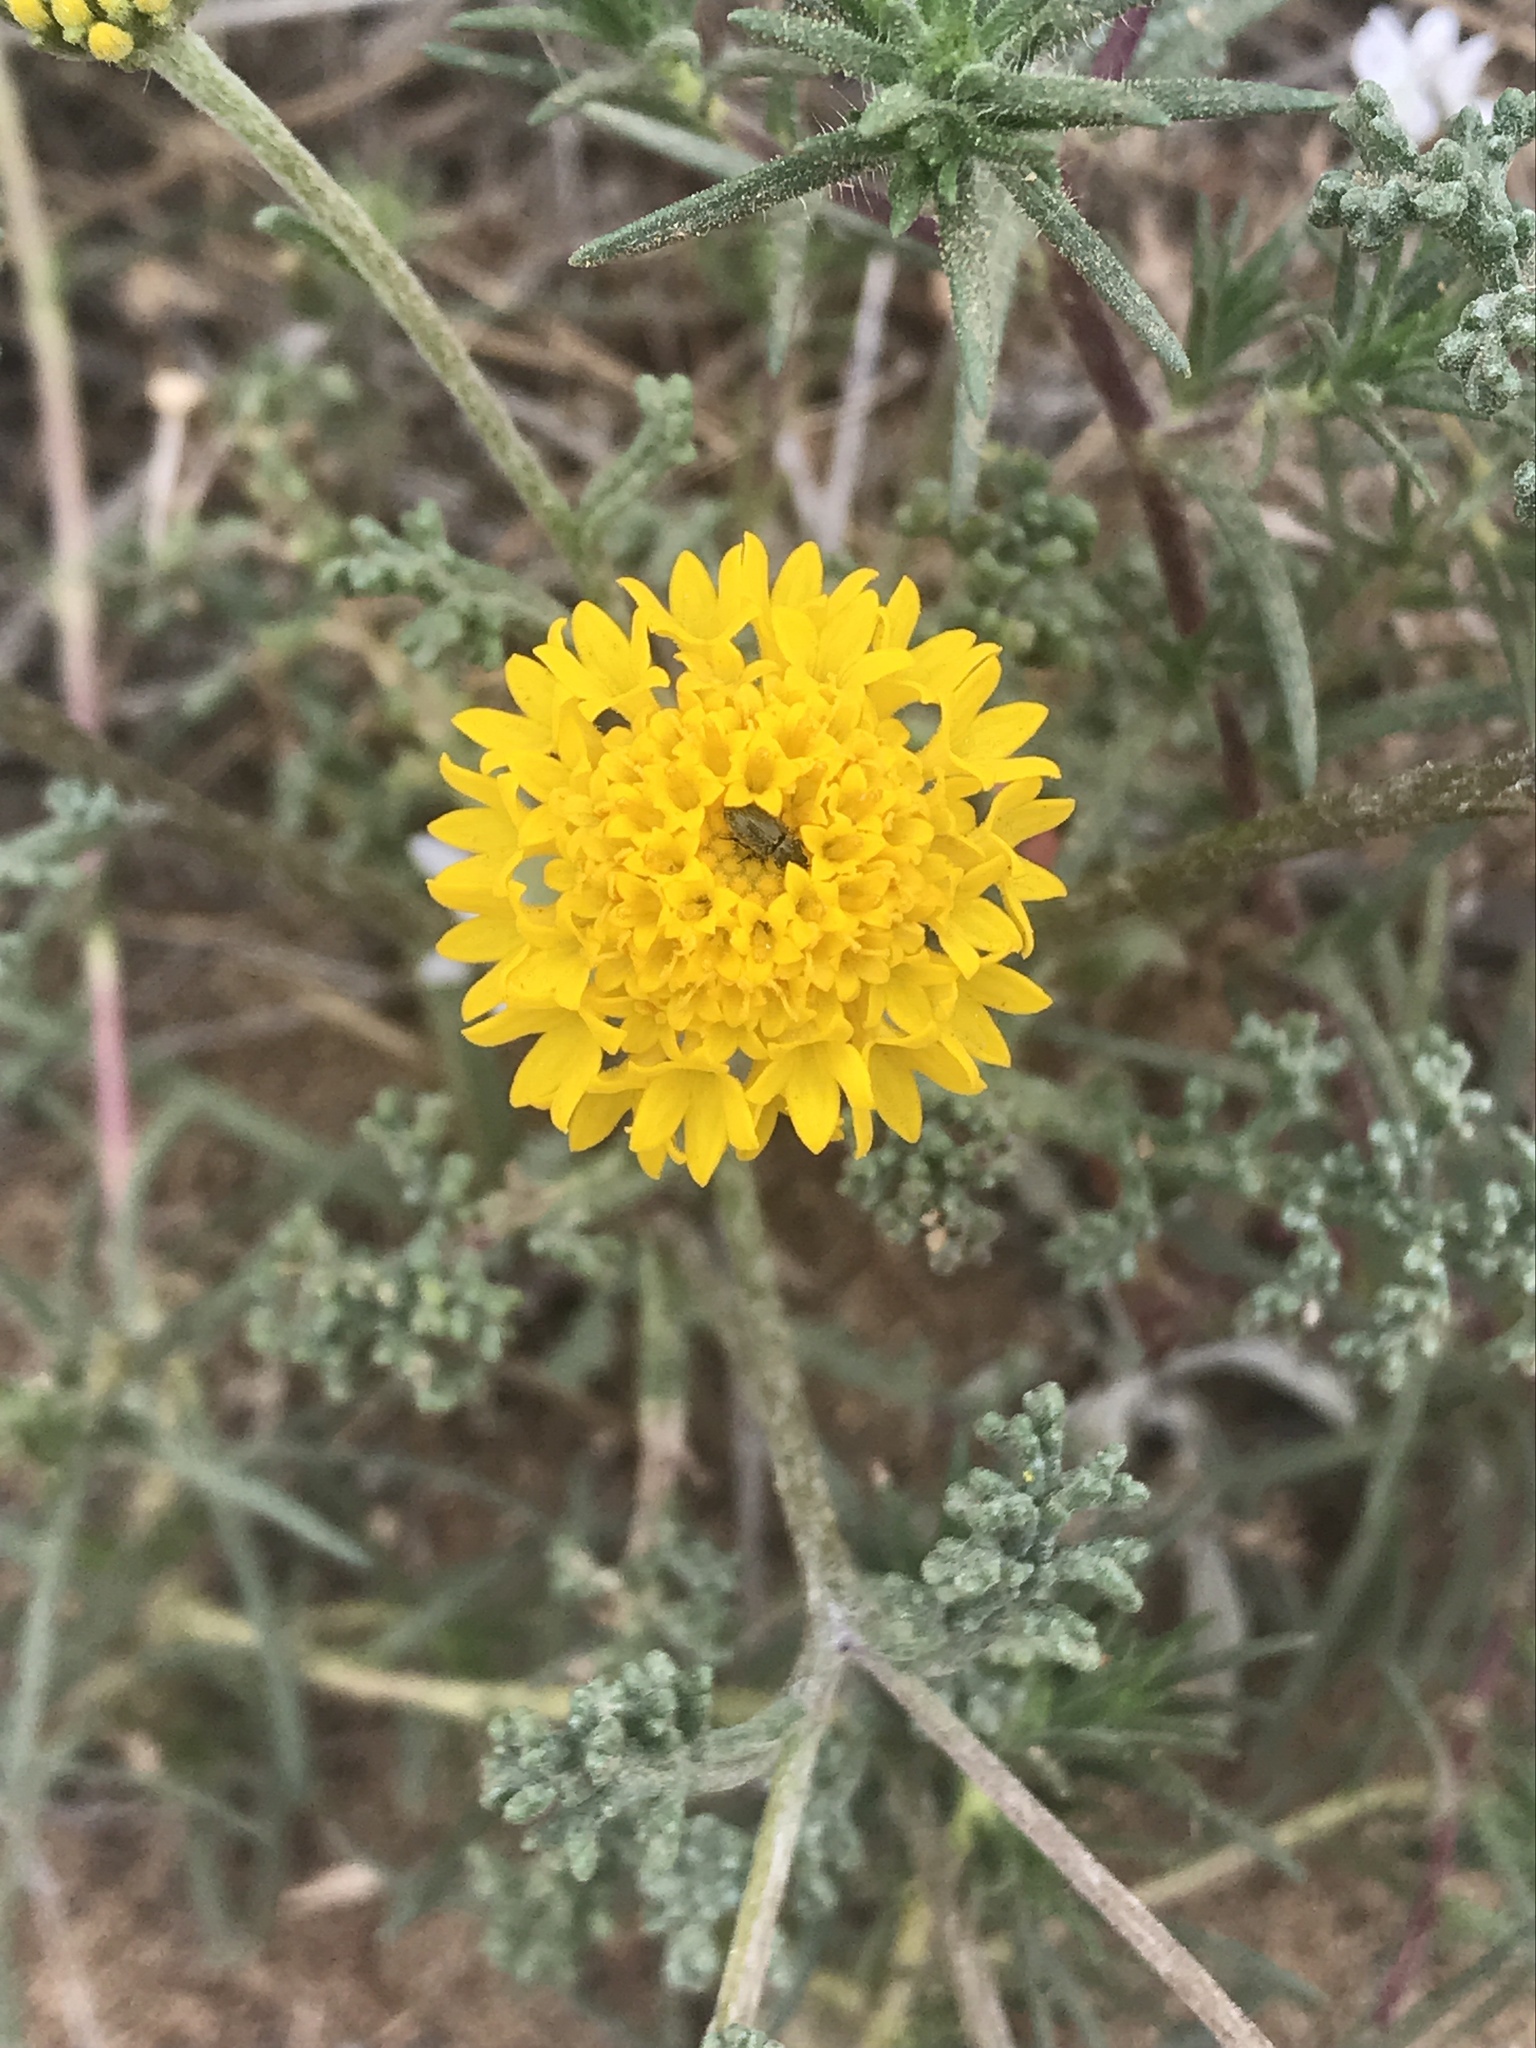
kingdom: Plantae
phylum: Tracheophyta
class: Magnoliopsida
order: Asterales
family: Asteraceae
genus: Chaenactis
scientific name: Chaenactis glabriuscula
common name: Yellow pincushion
